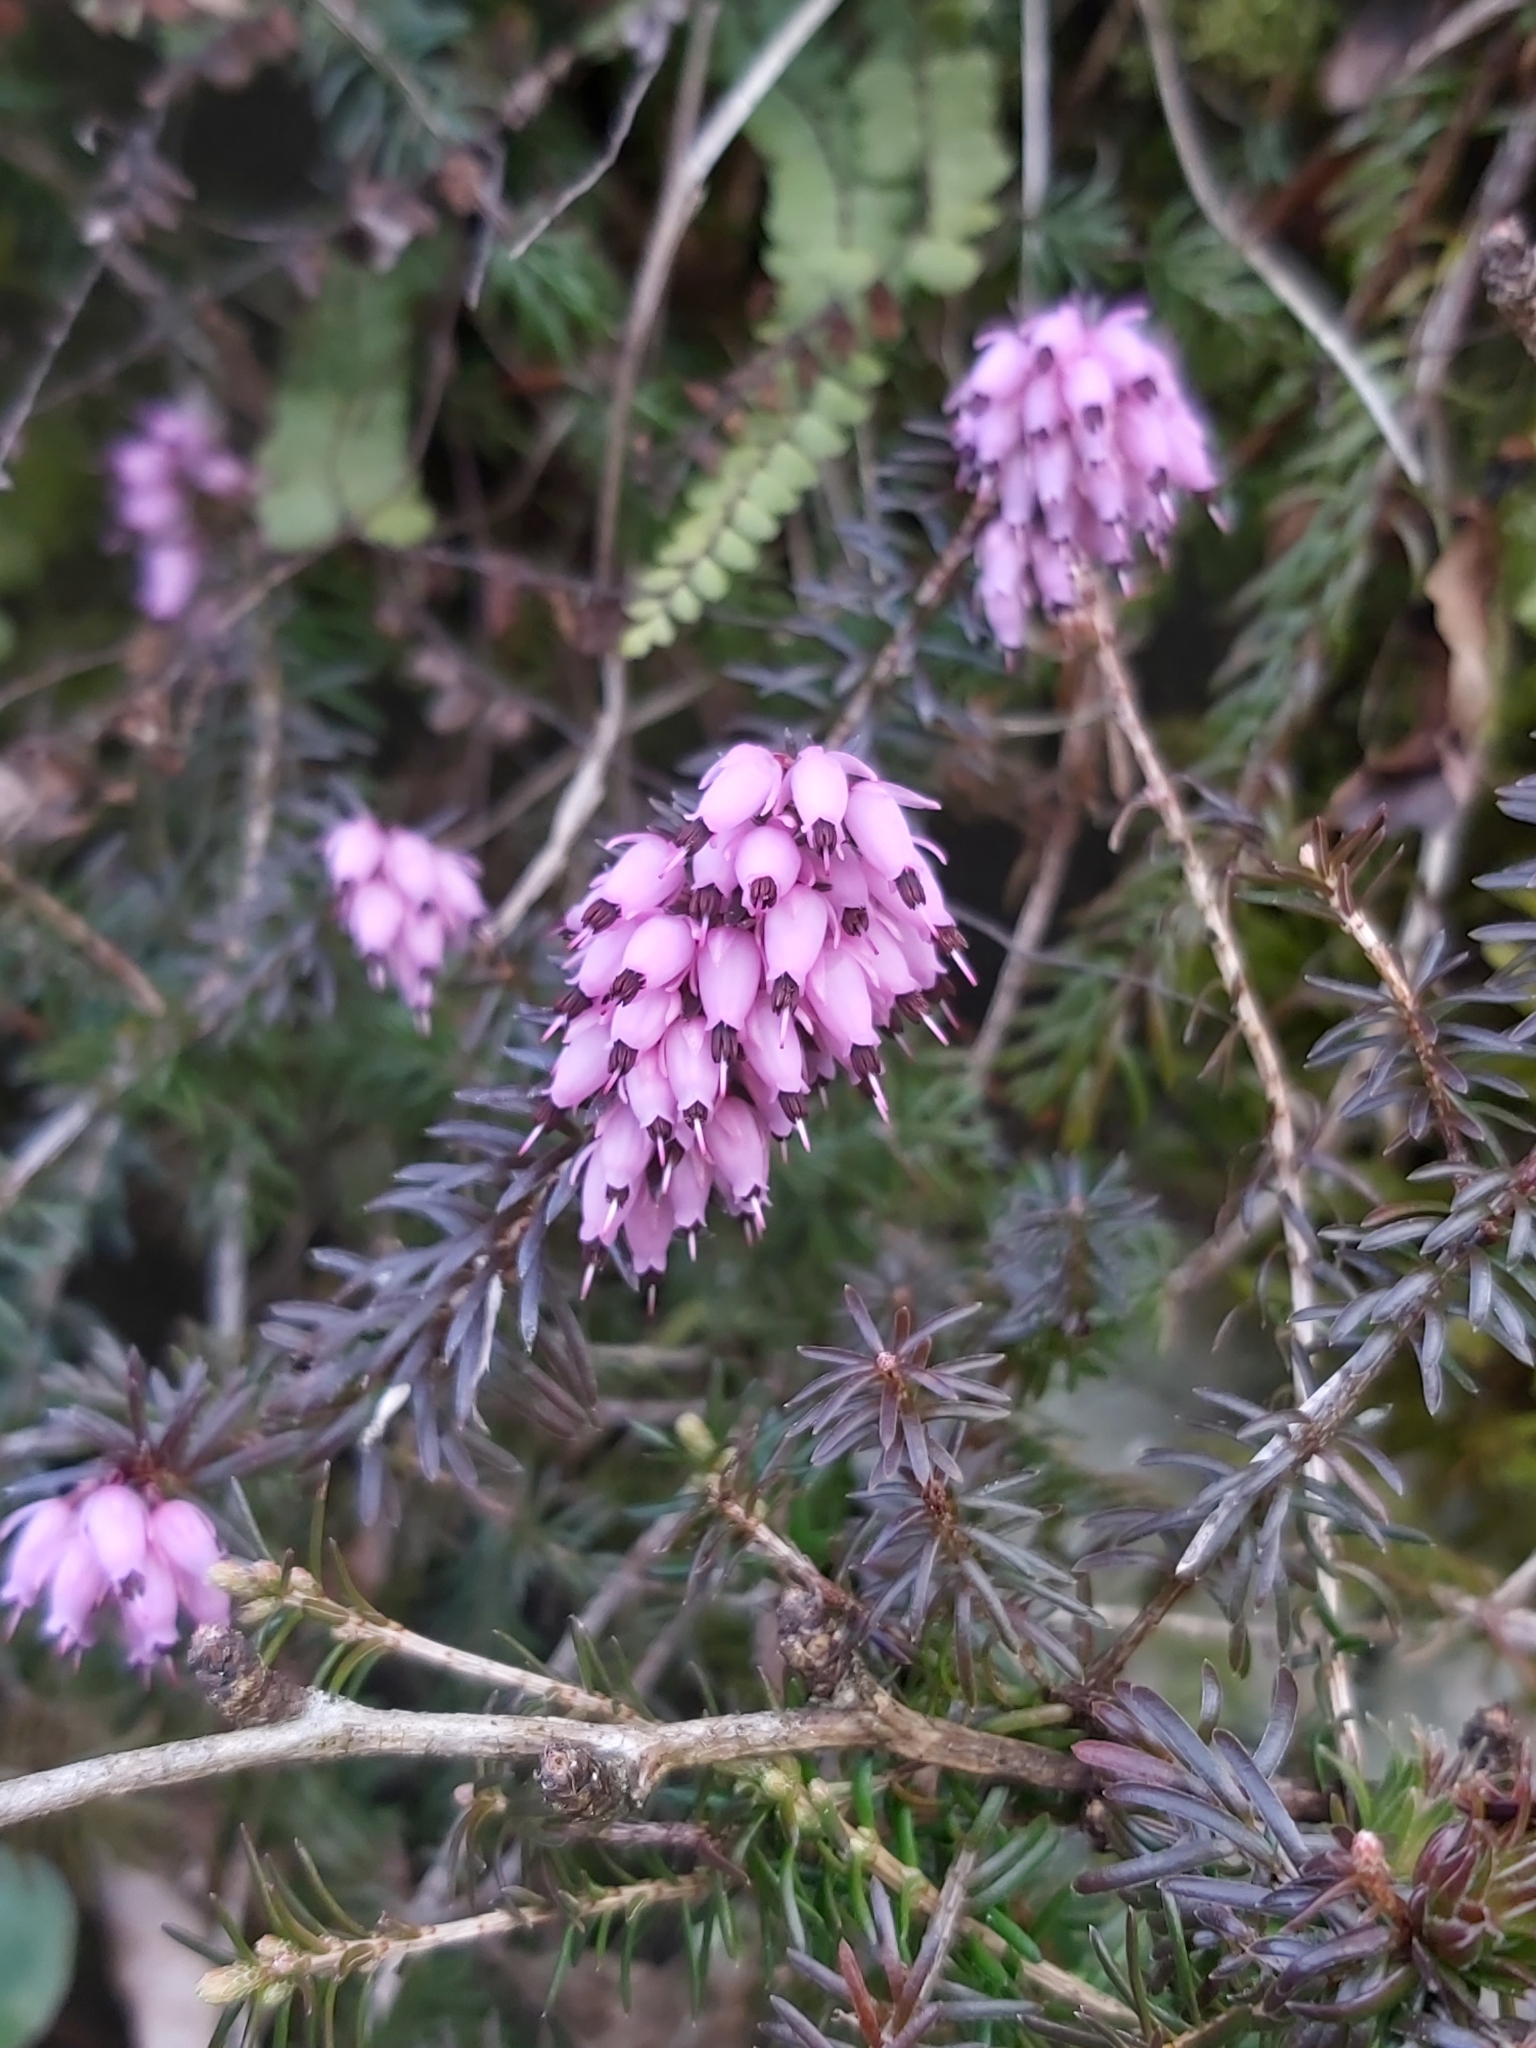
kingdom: Plantae
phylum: Tracheophyta
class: Magnoliopsida
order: Ericales
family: Ericaceae
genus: Erica
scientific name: Erica carnea
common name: Winter heath
